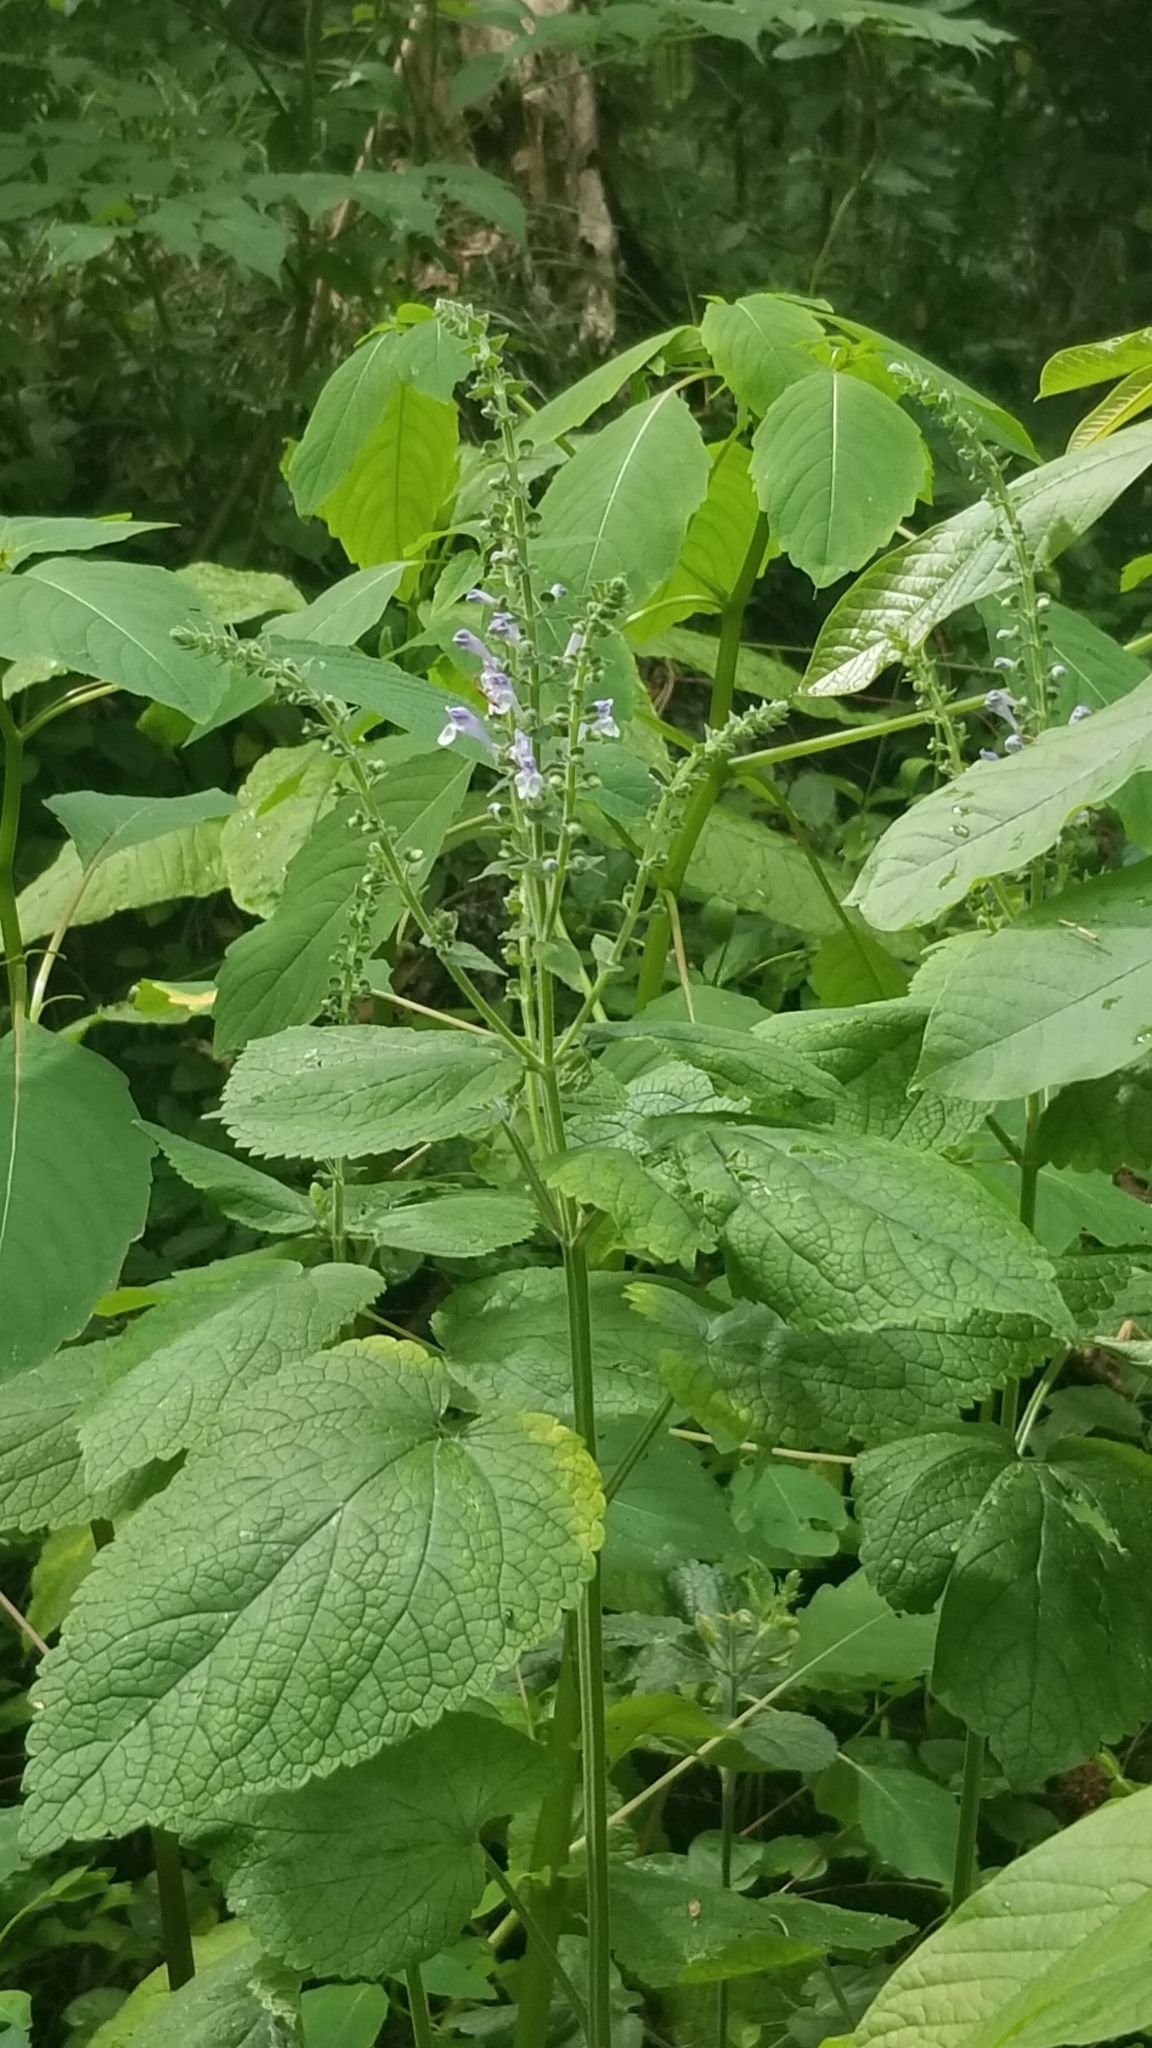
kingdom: Plantae
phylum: Tracheophyta
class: Magnoliopsida
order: Lamiales
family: Lamiaceae
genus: Scutellaria
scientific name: Scutellaria ovata
